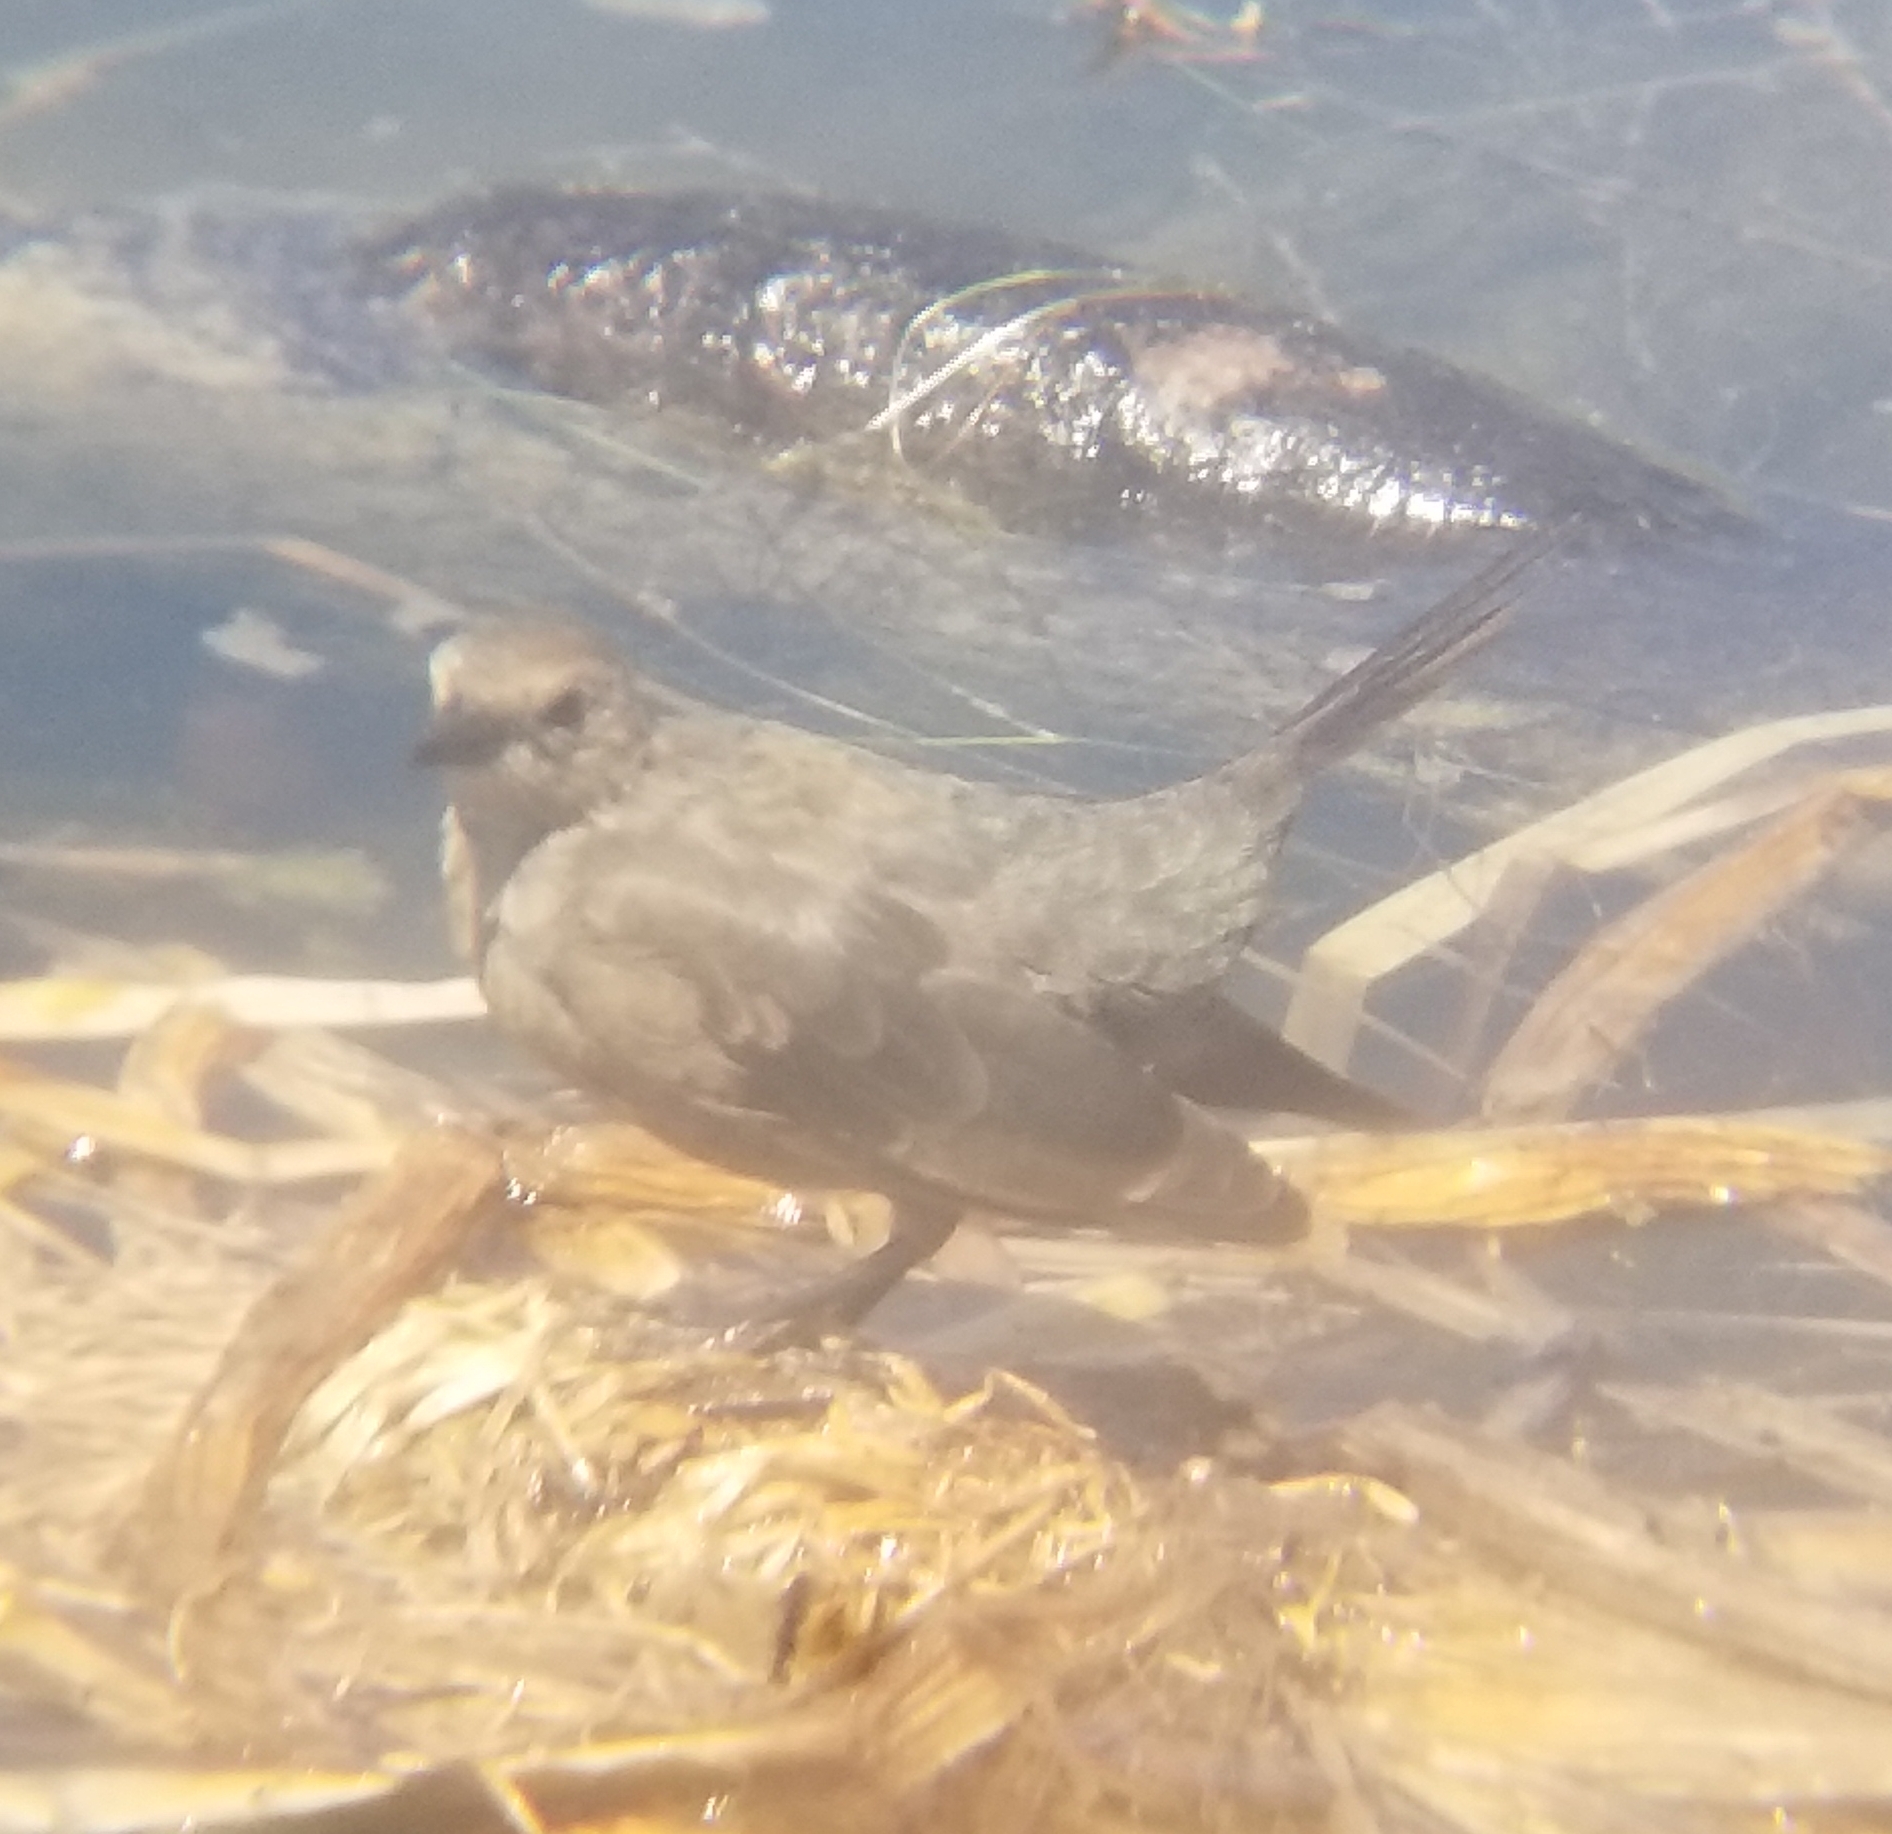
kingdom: Animalia
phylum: Chordata
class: Aves
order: Passeriformes
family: Icteridae
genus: Euphagus
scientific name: Euphagus cyanocephalus
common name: Brewer's blackbird
